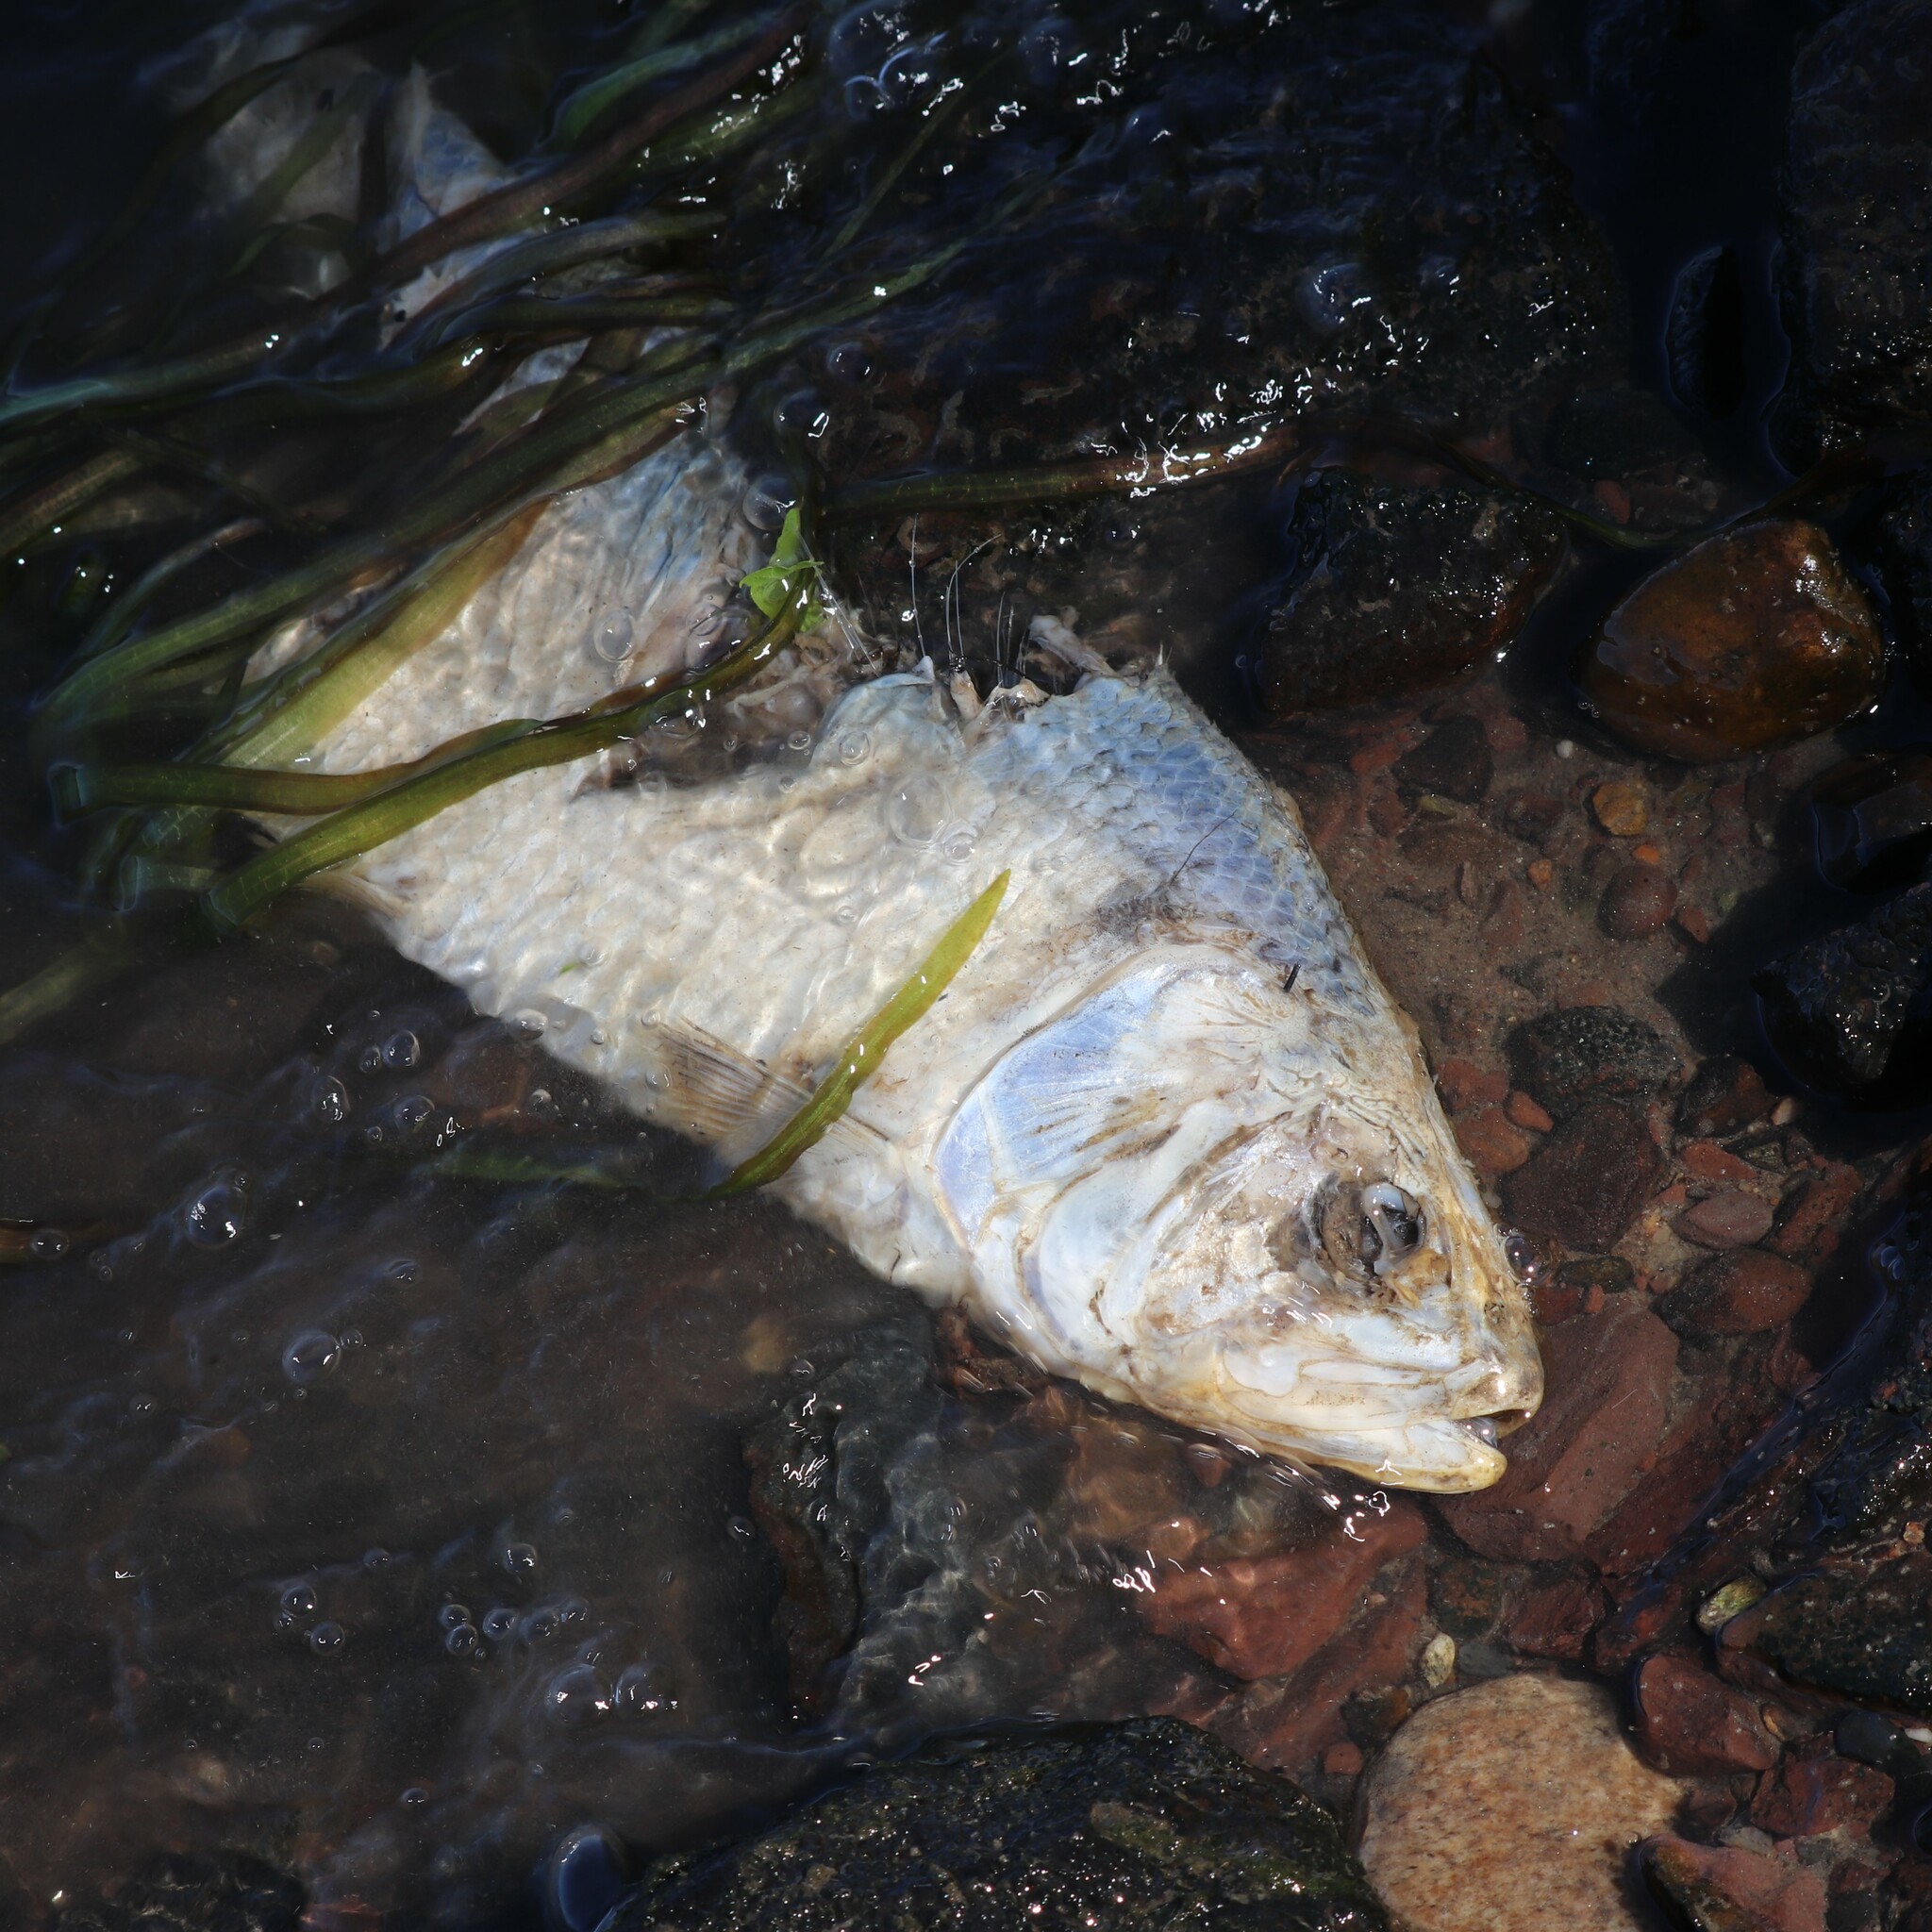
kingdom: Animalia
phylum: Chordata
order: Clupeiformes
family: Clupeidae
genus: Alosa
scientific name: Alosa sapidissima
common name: American shad
